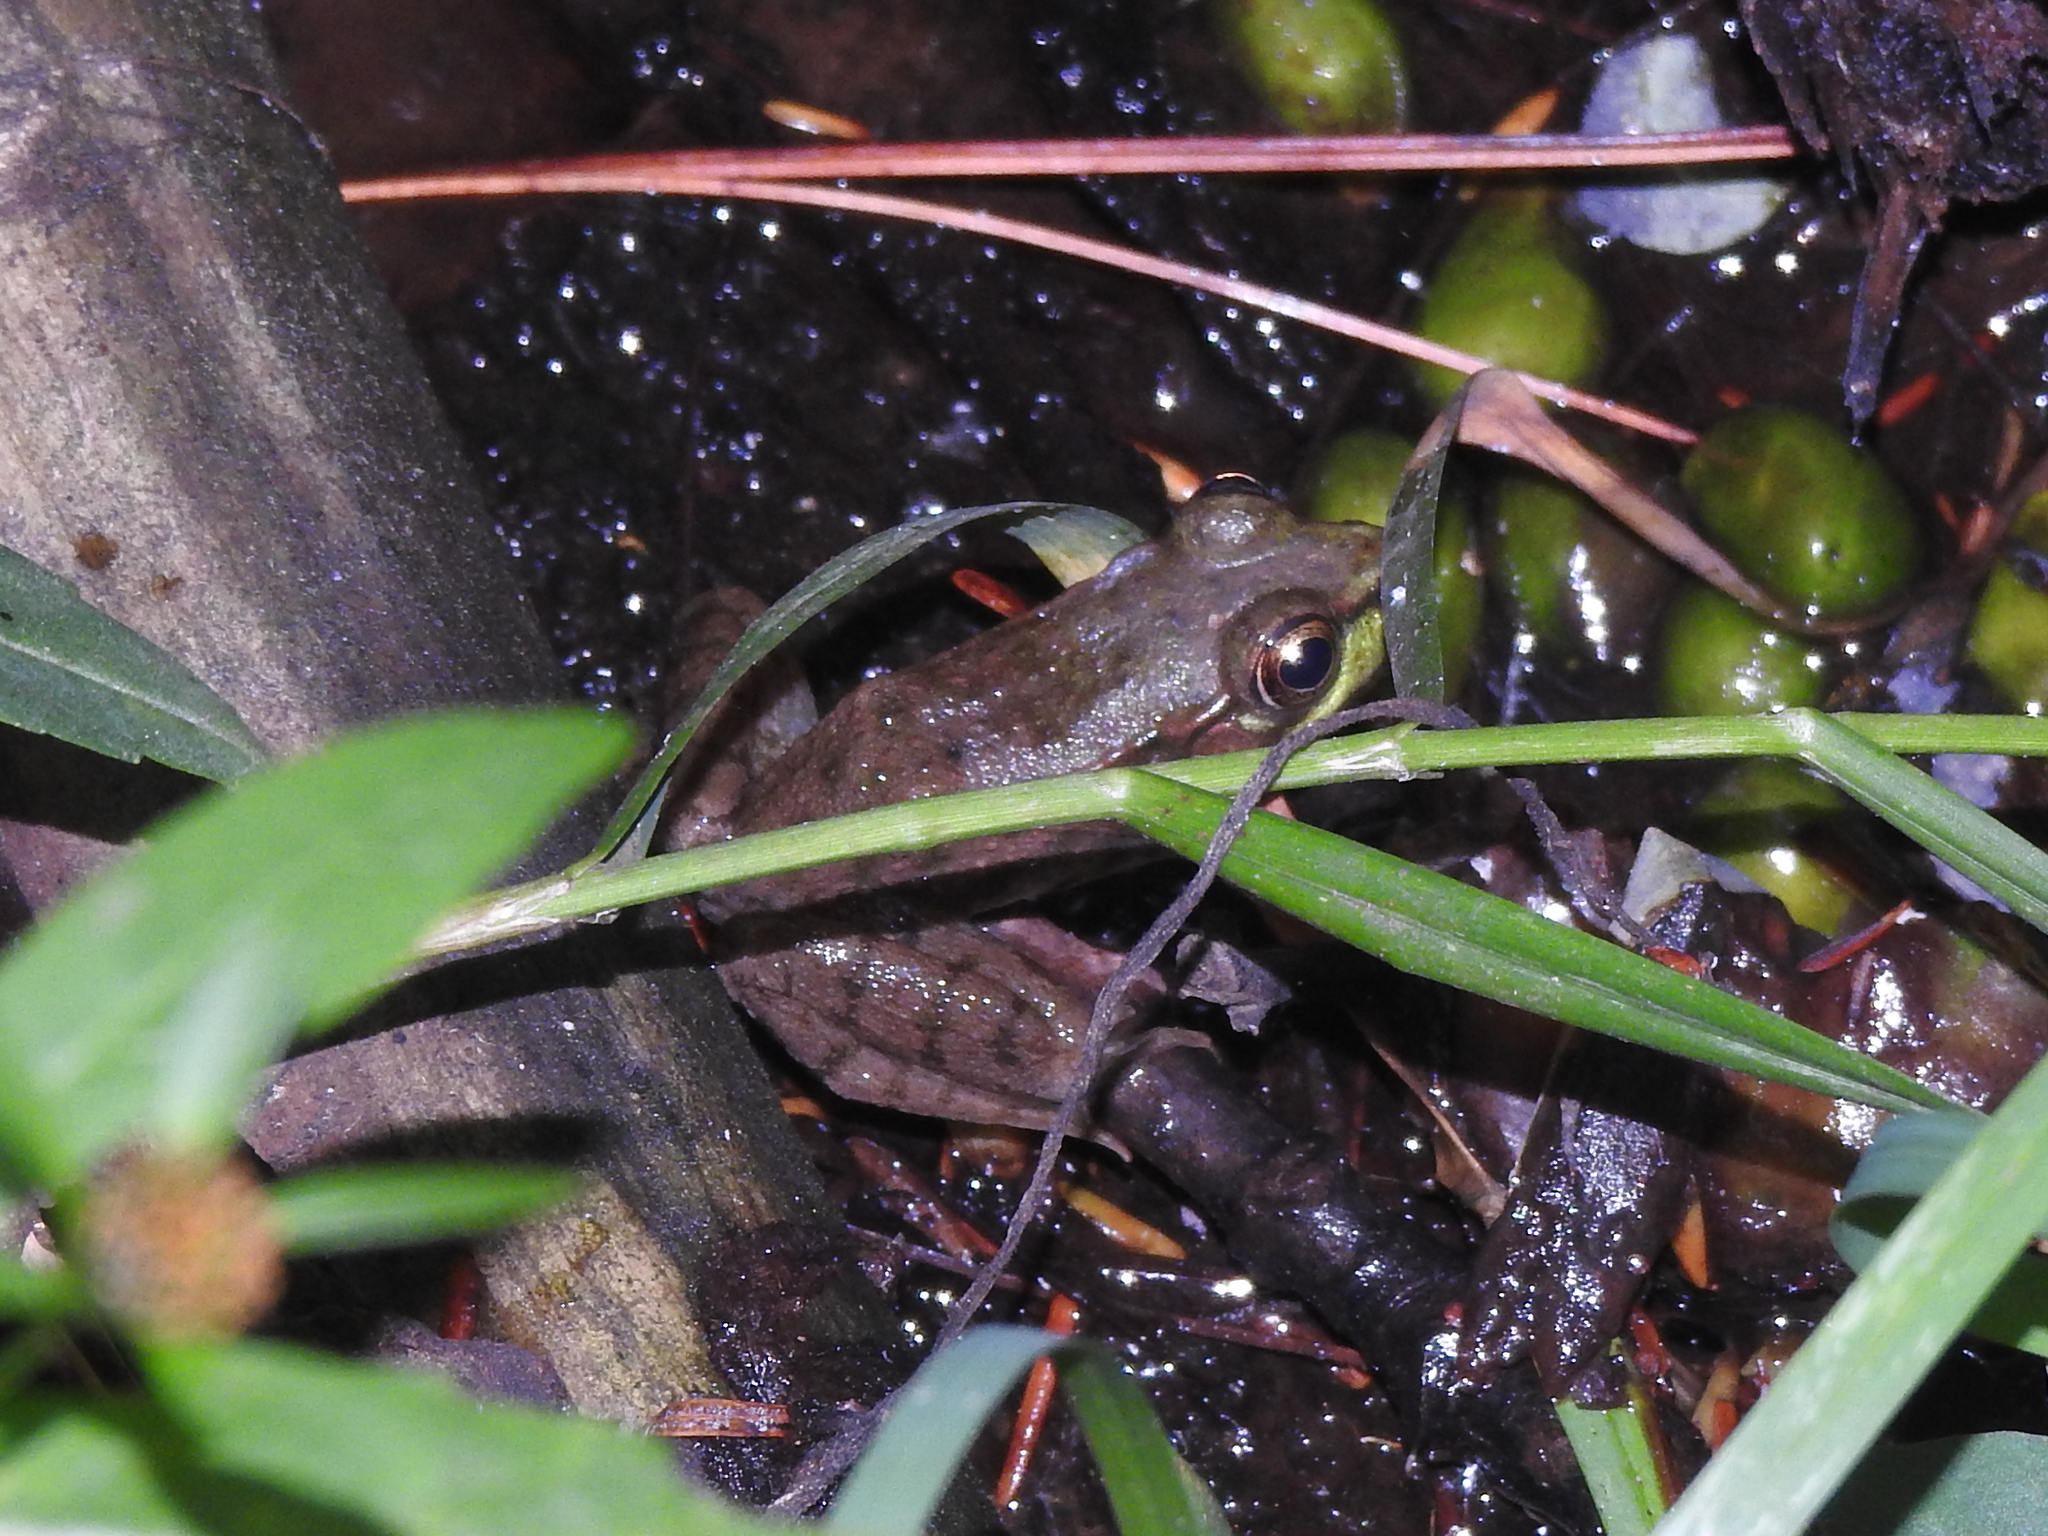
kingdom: Animalia
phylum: Chordata
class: Amphibia
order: Anura
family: Ranidae
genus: Lithobates
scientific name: Lithobates clamitans
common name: Green frog
